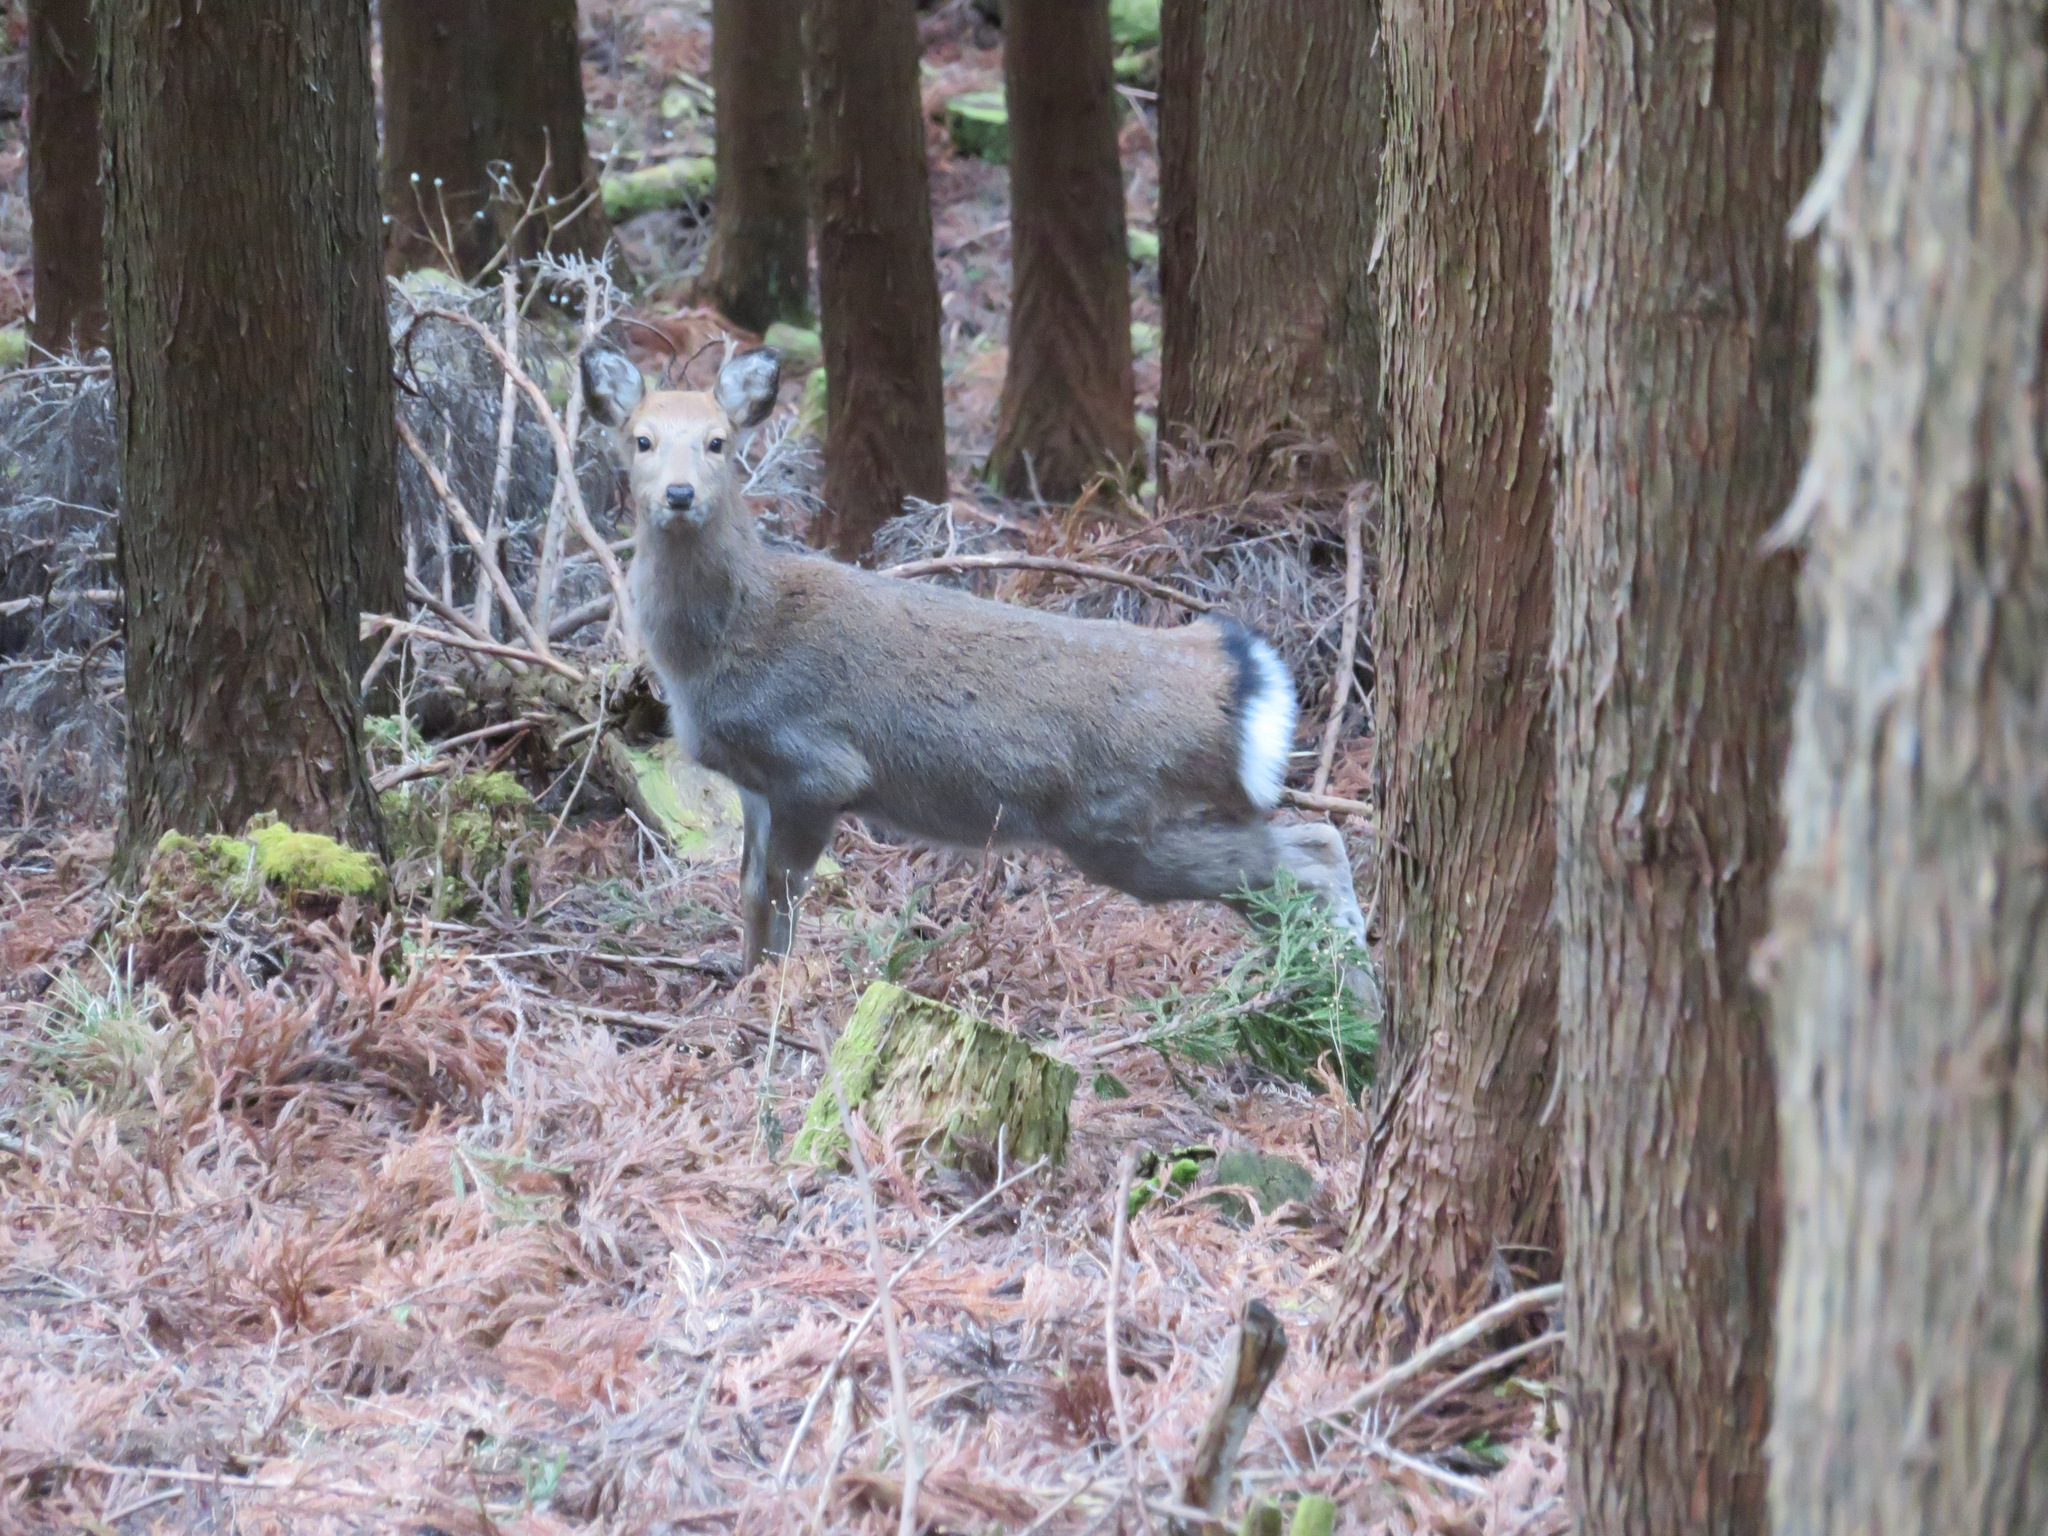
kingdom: Animalia
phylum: Chordata
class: Mammalia
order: Artiodactyla
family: Cervidae
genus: Cervus
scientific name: Cervus nippon
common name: Sika deer
